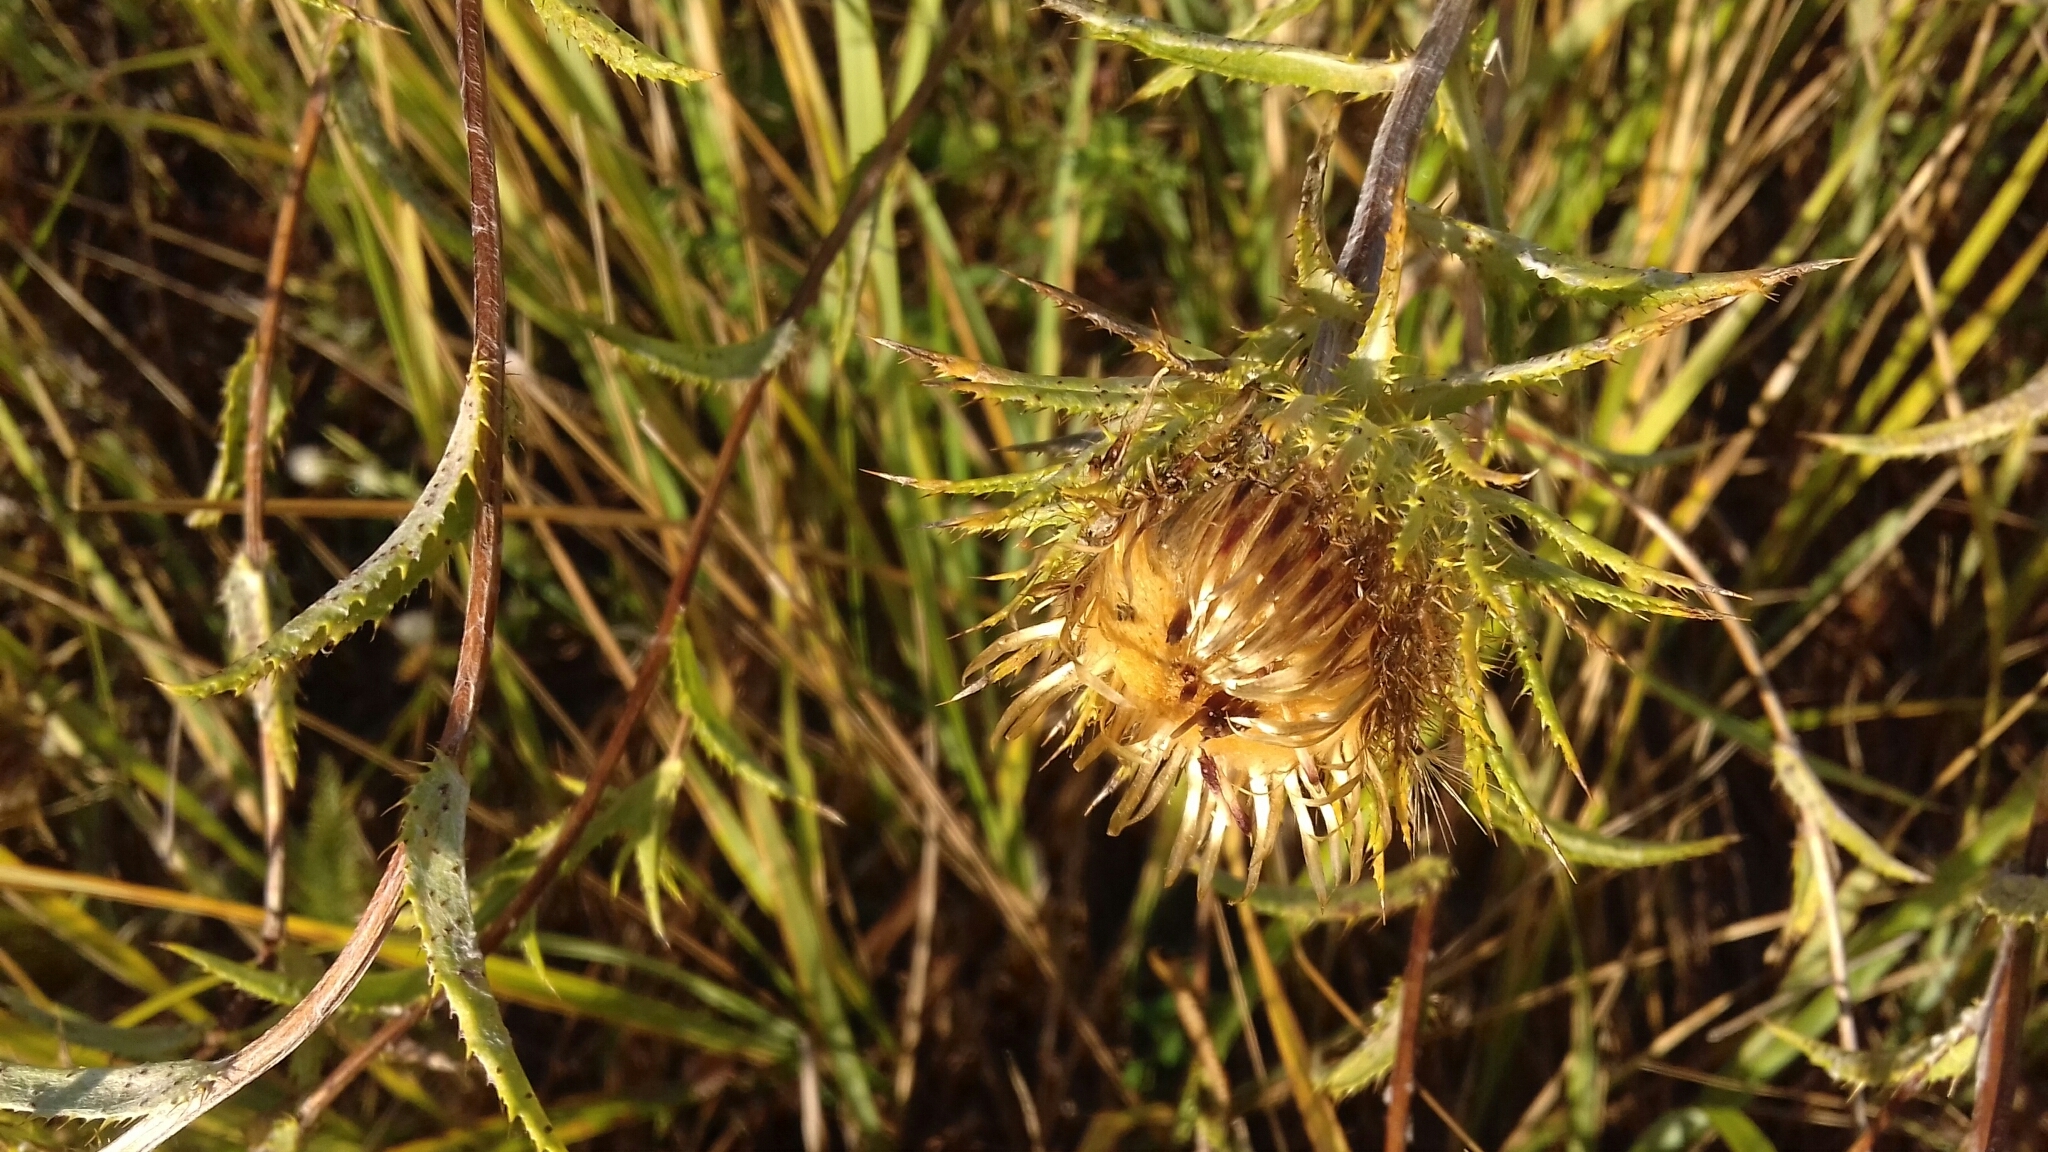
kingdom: Plantae
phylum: Tracheophyta
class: Magnoliopsida
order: Asterales
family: Asteraceae
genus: Carlina
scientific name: Carlina biebersteinii
